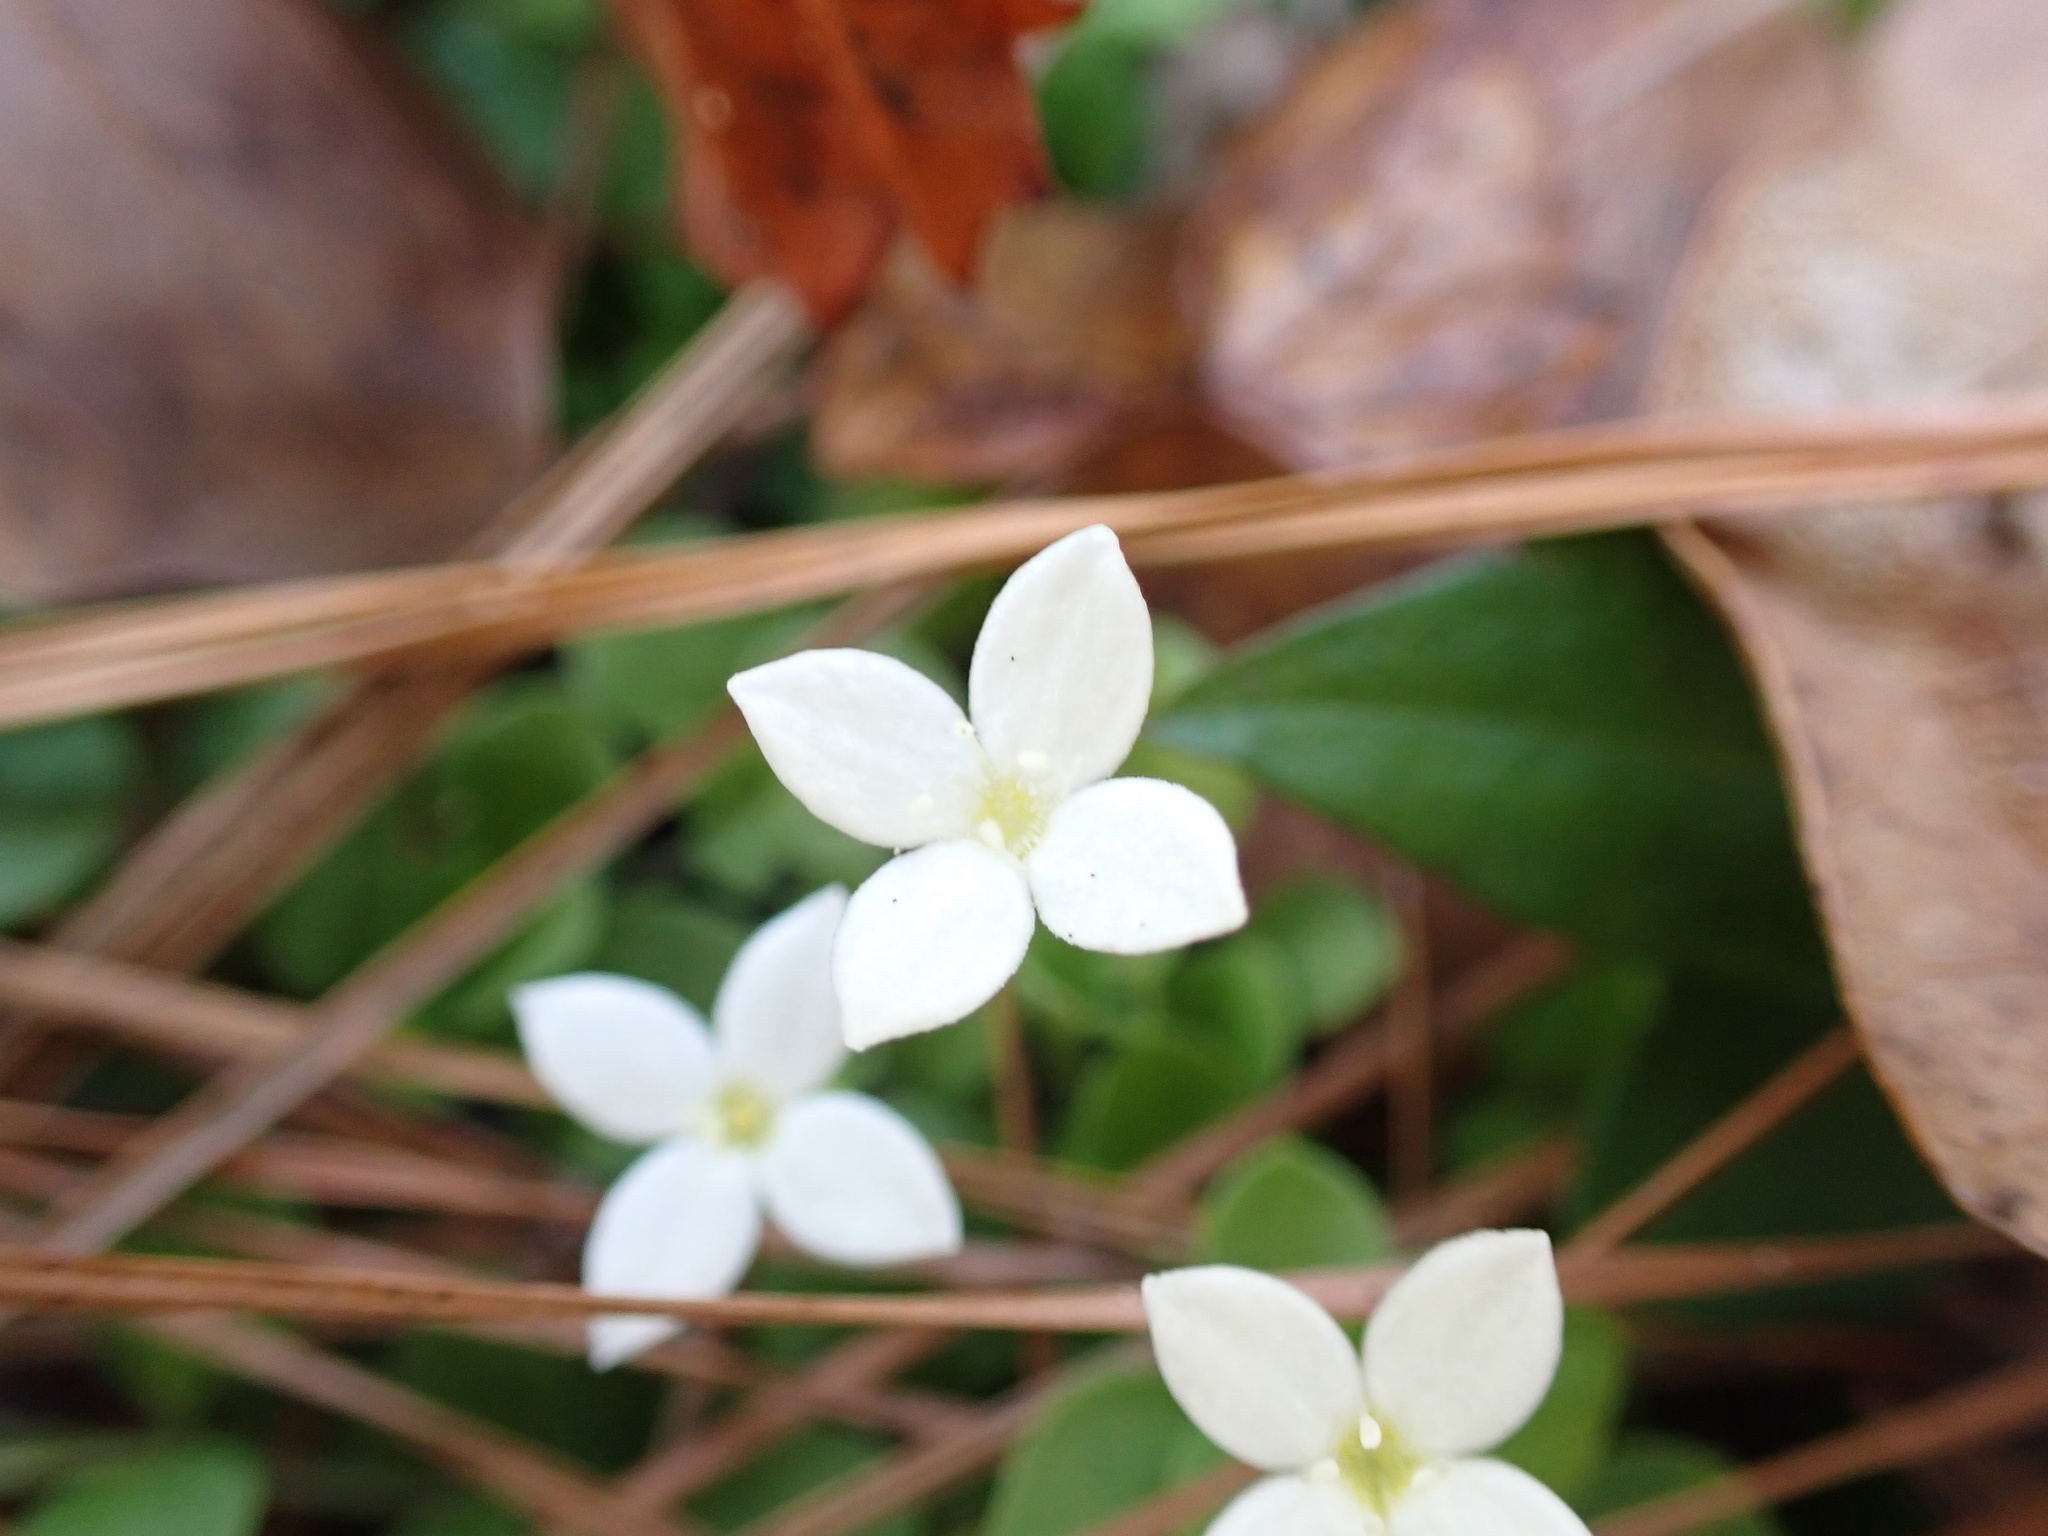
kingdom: Plantae
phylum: Tracheophyta
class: Magnoliopsida
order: Gentianales
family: Rubiaceae
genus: Houstonia
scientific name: Houstonia procumbens
